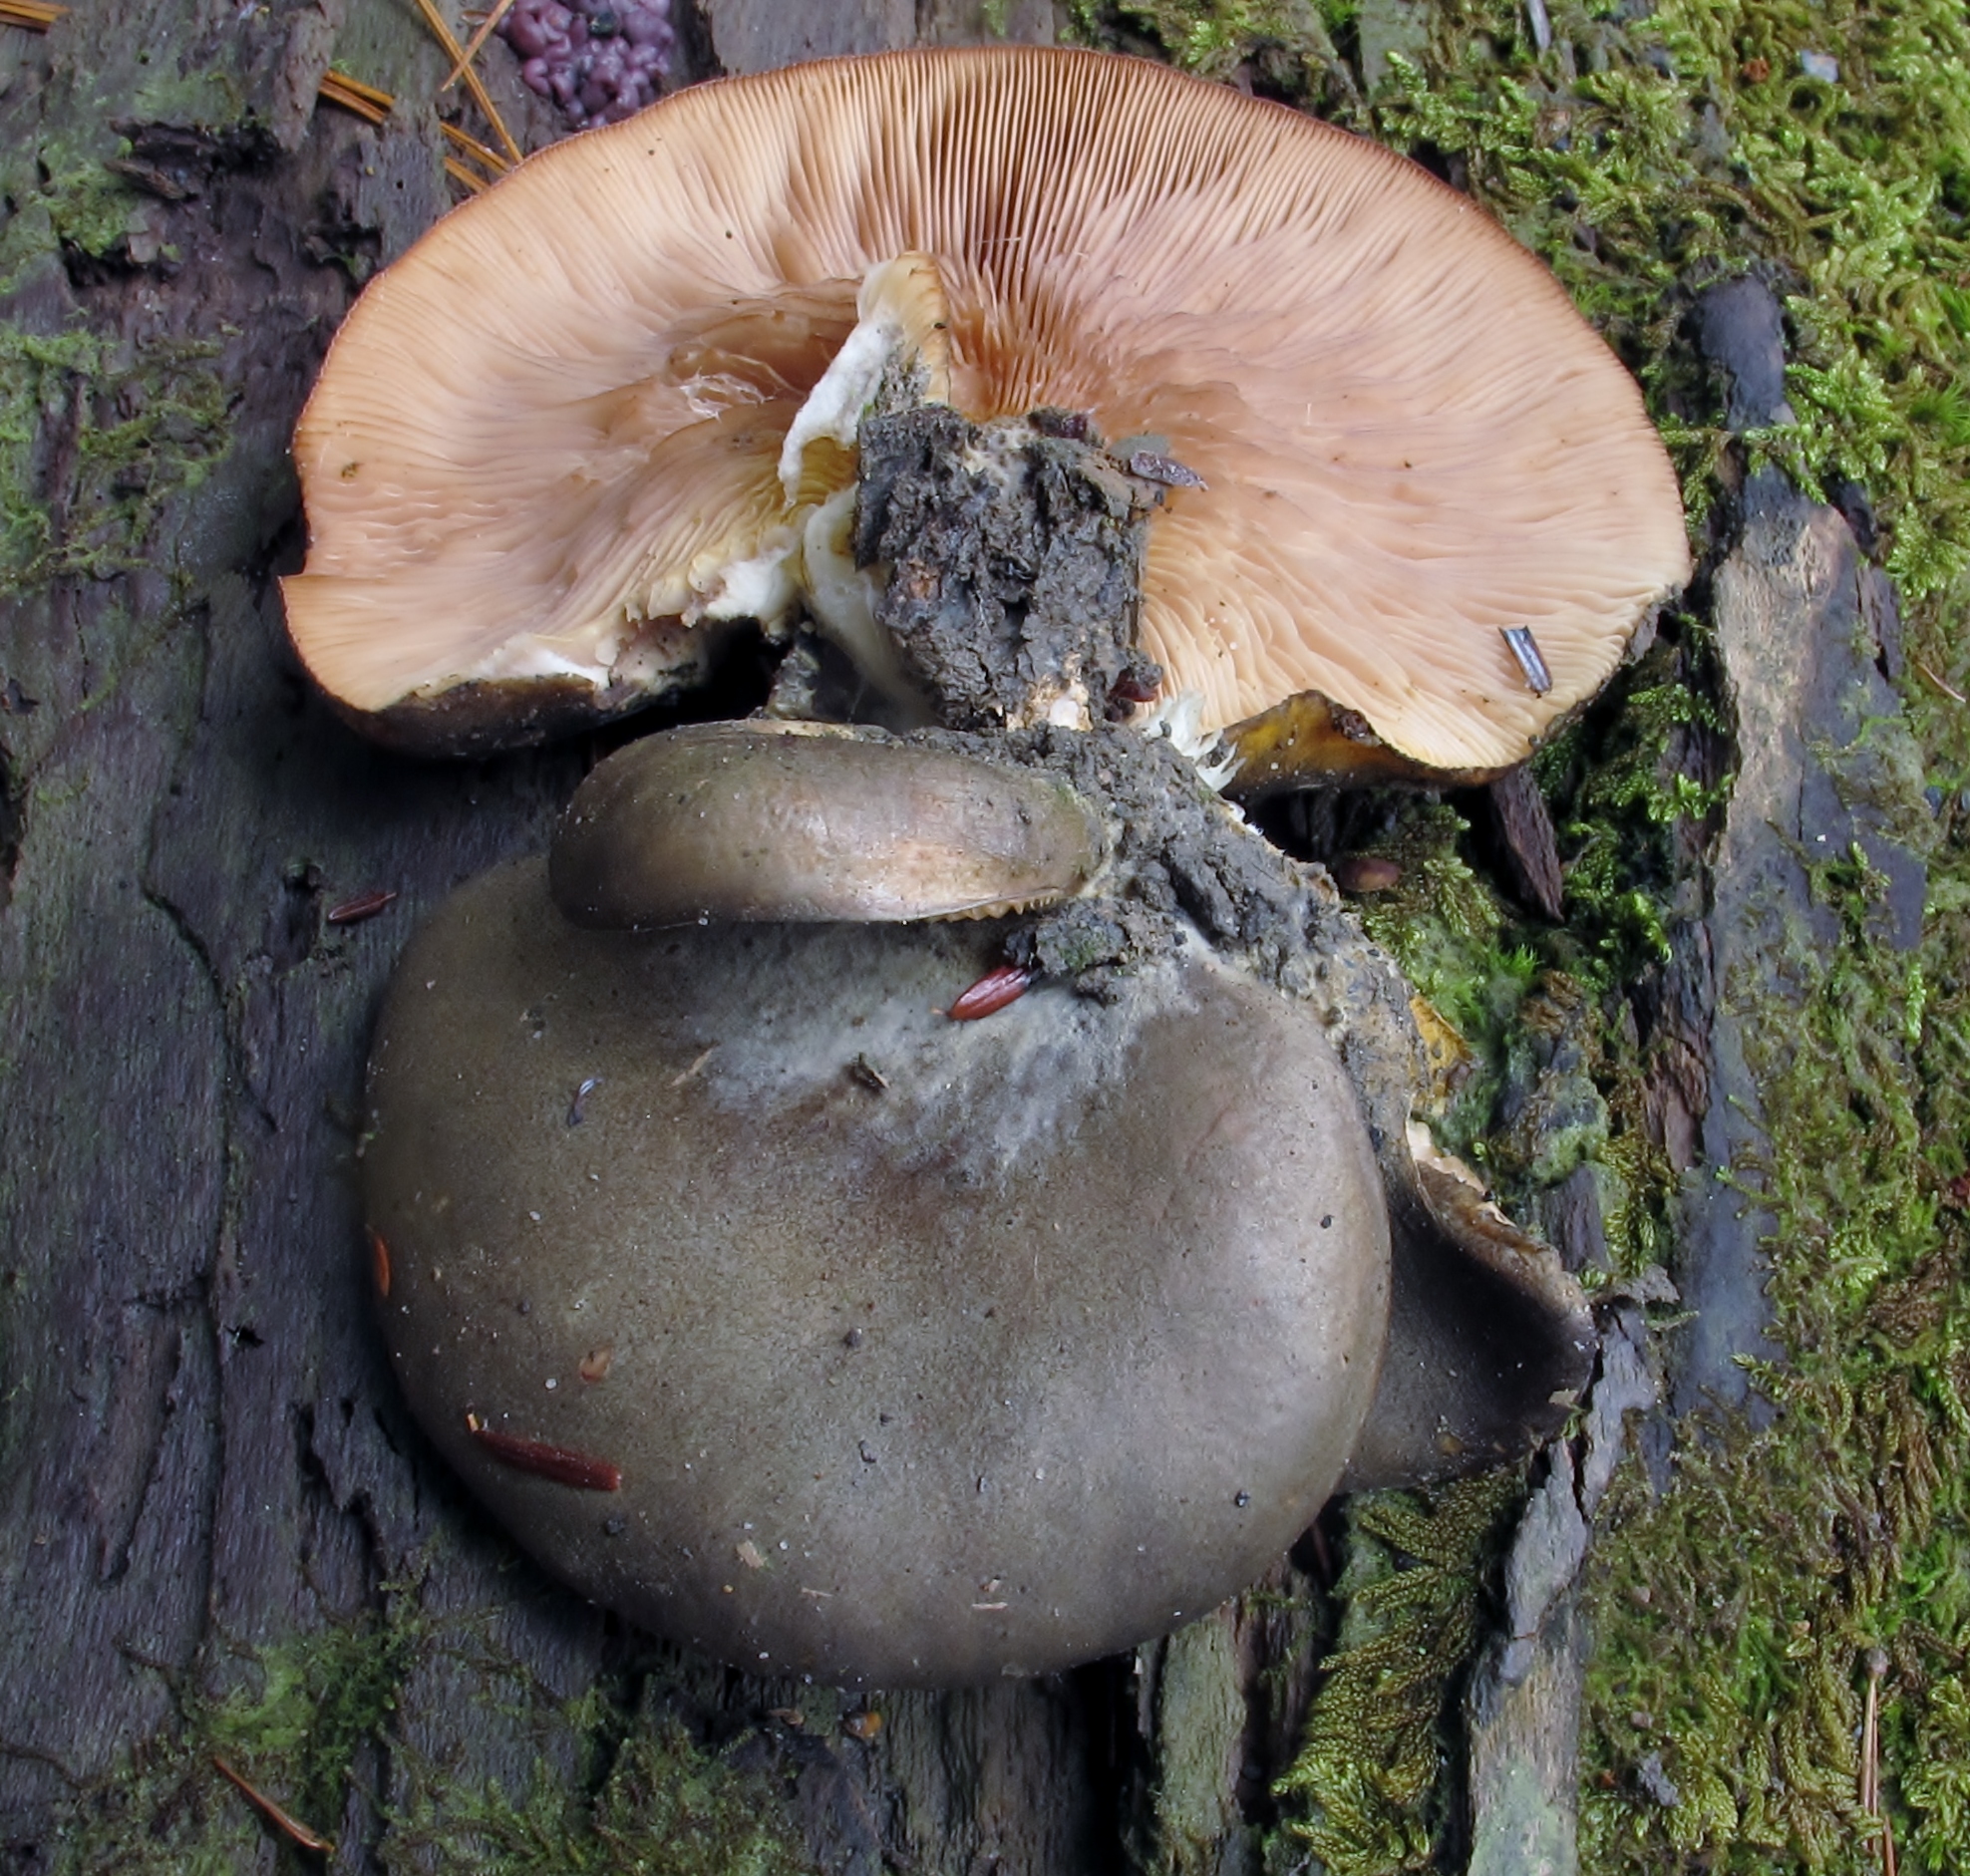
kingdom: Fungi
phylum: Basidiomycota
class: Agaricomycetes
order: Agaricales
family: Sarcomyxaceae
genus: Sarcomyxa
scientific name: Sarcomyxa serotina
